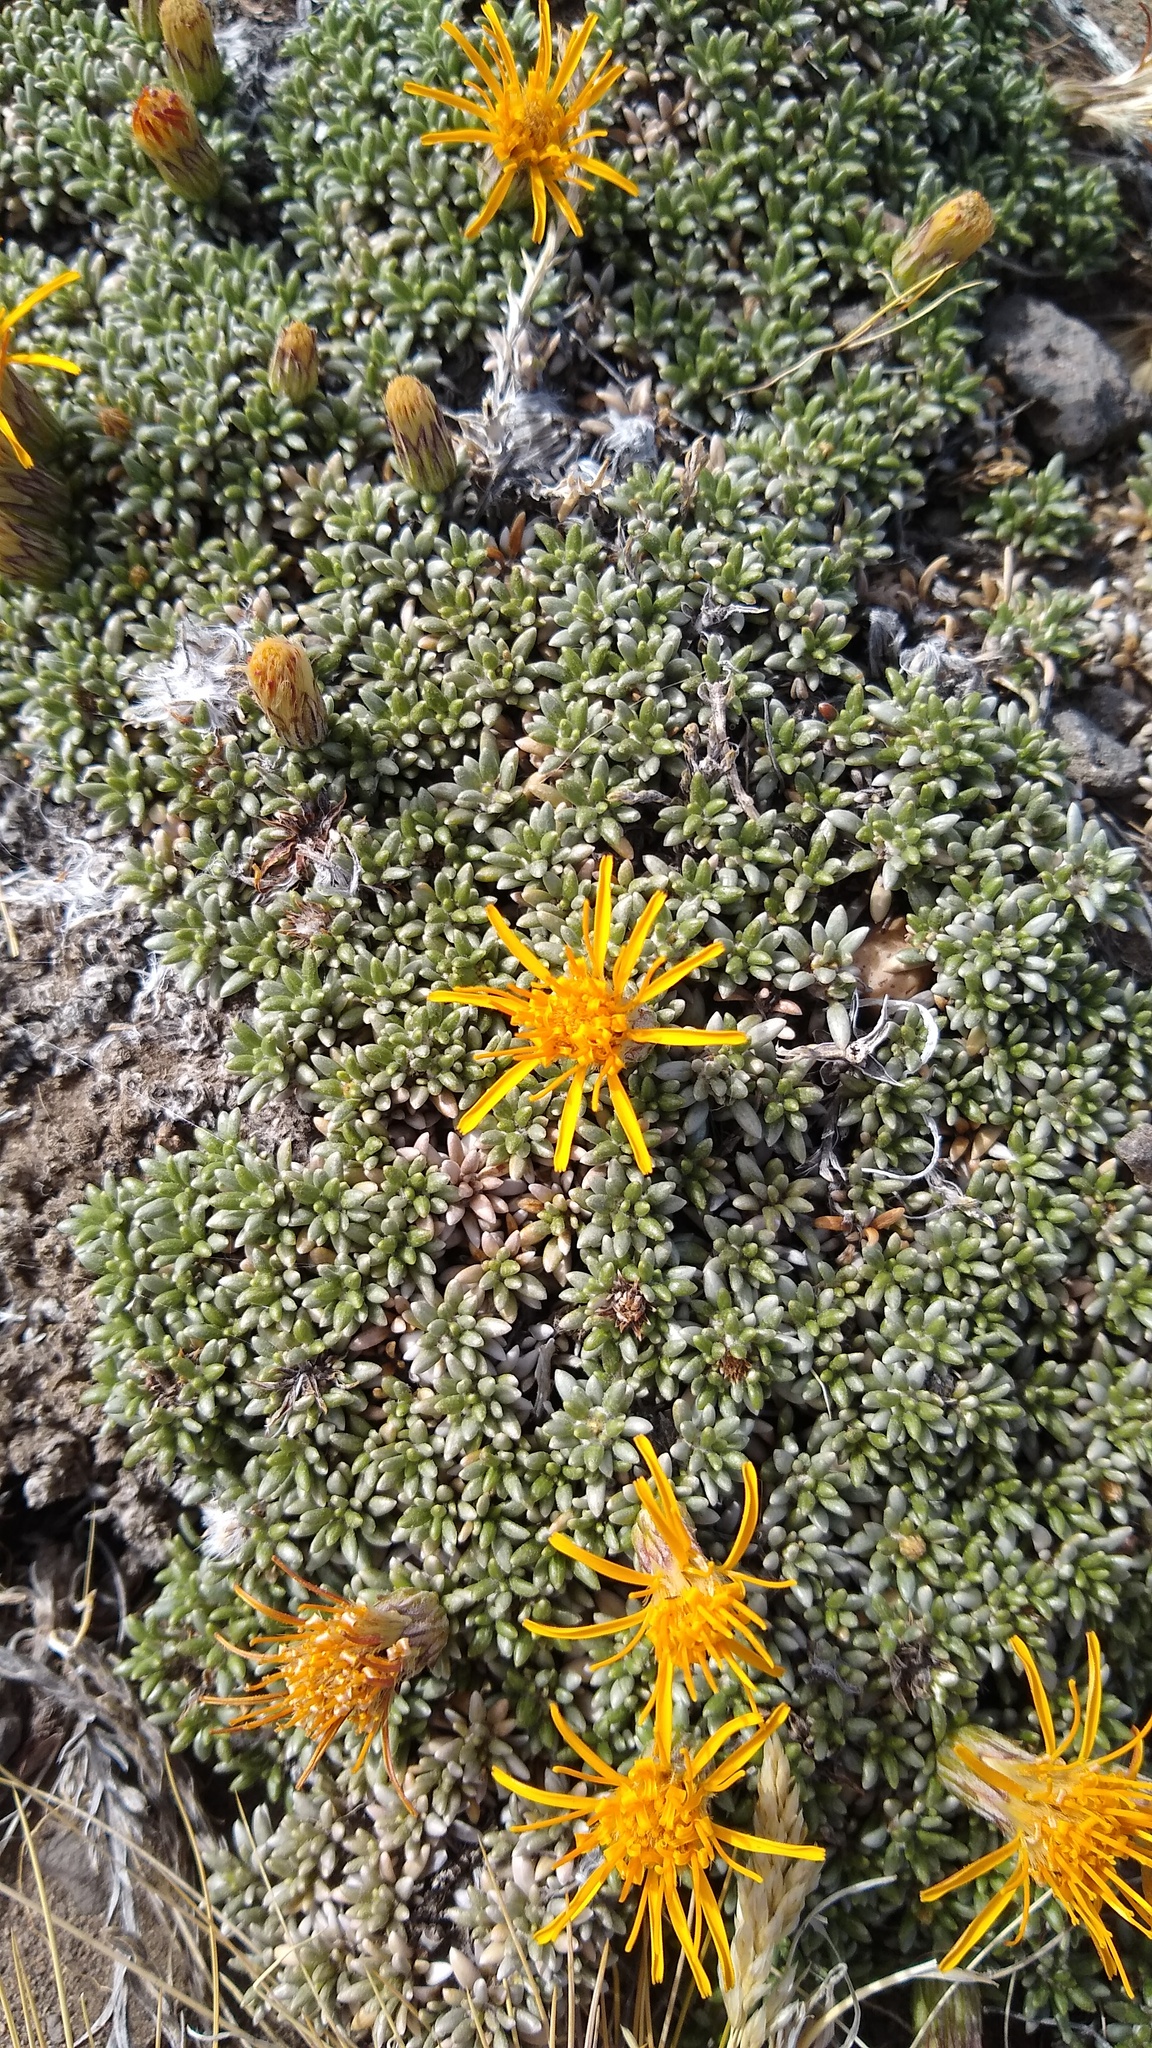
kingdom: Plantae
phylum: Tracheophyta
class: Magnoliopsida
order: Asterales
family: Asteraceae
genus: Brachyclados
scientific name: Brachyclados caespitosus
